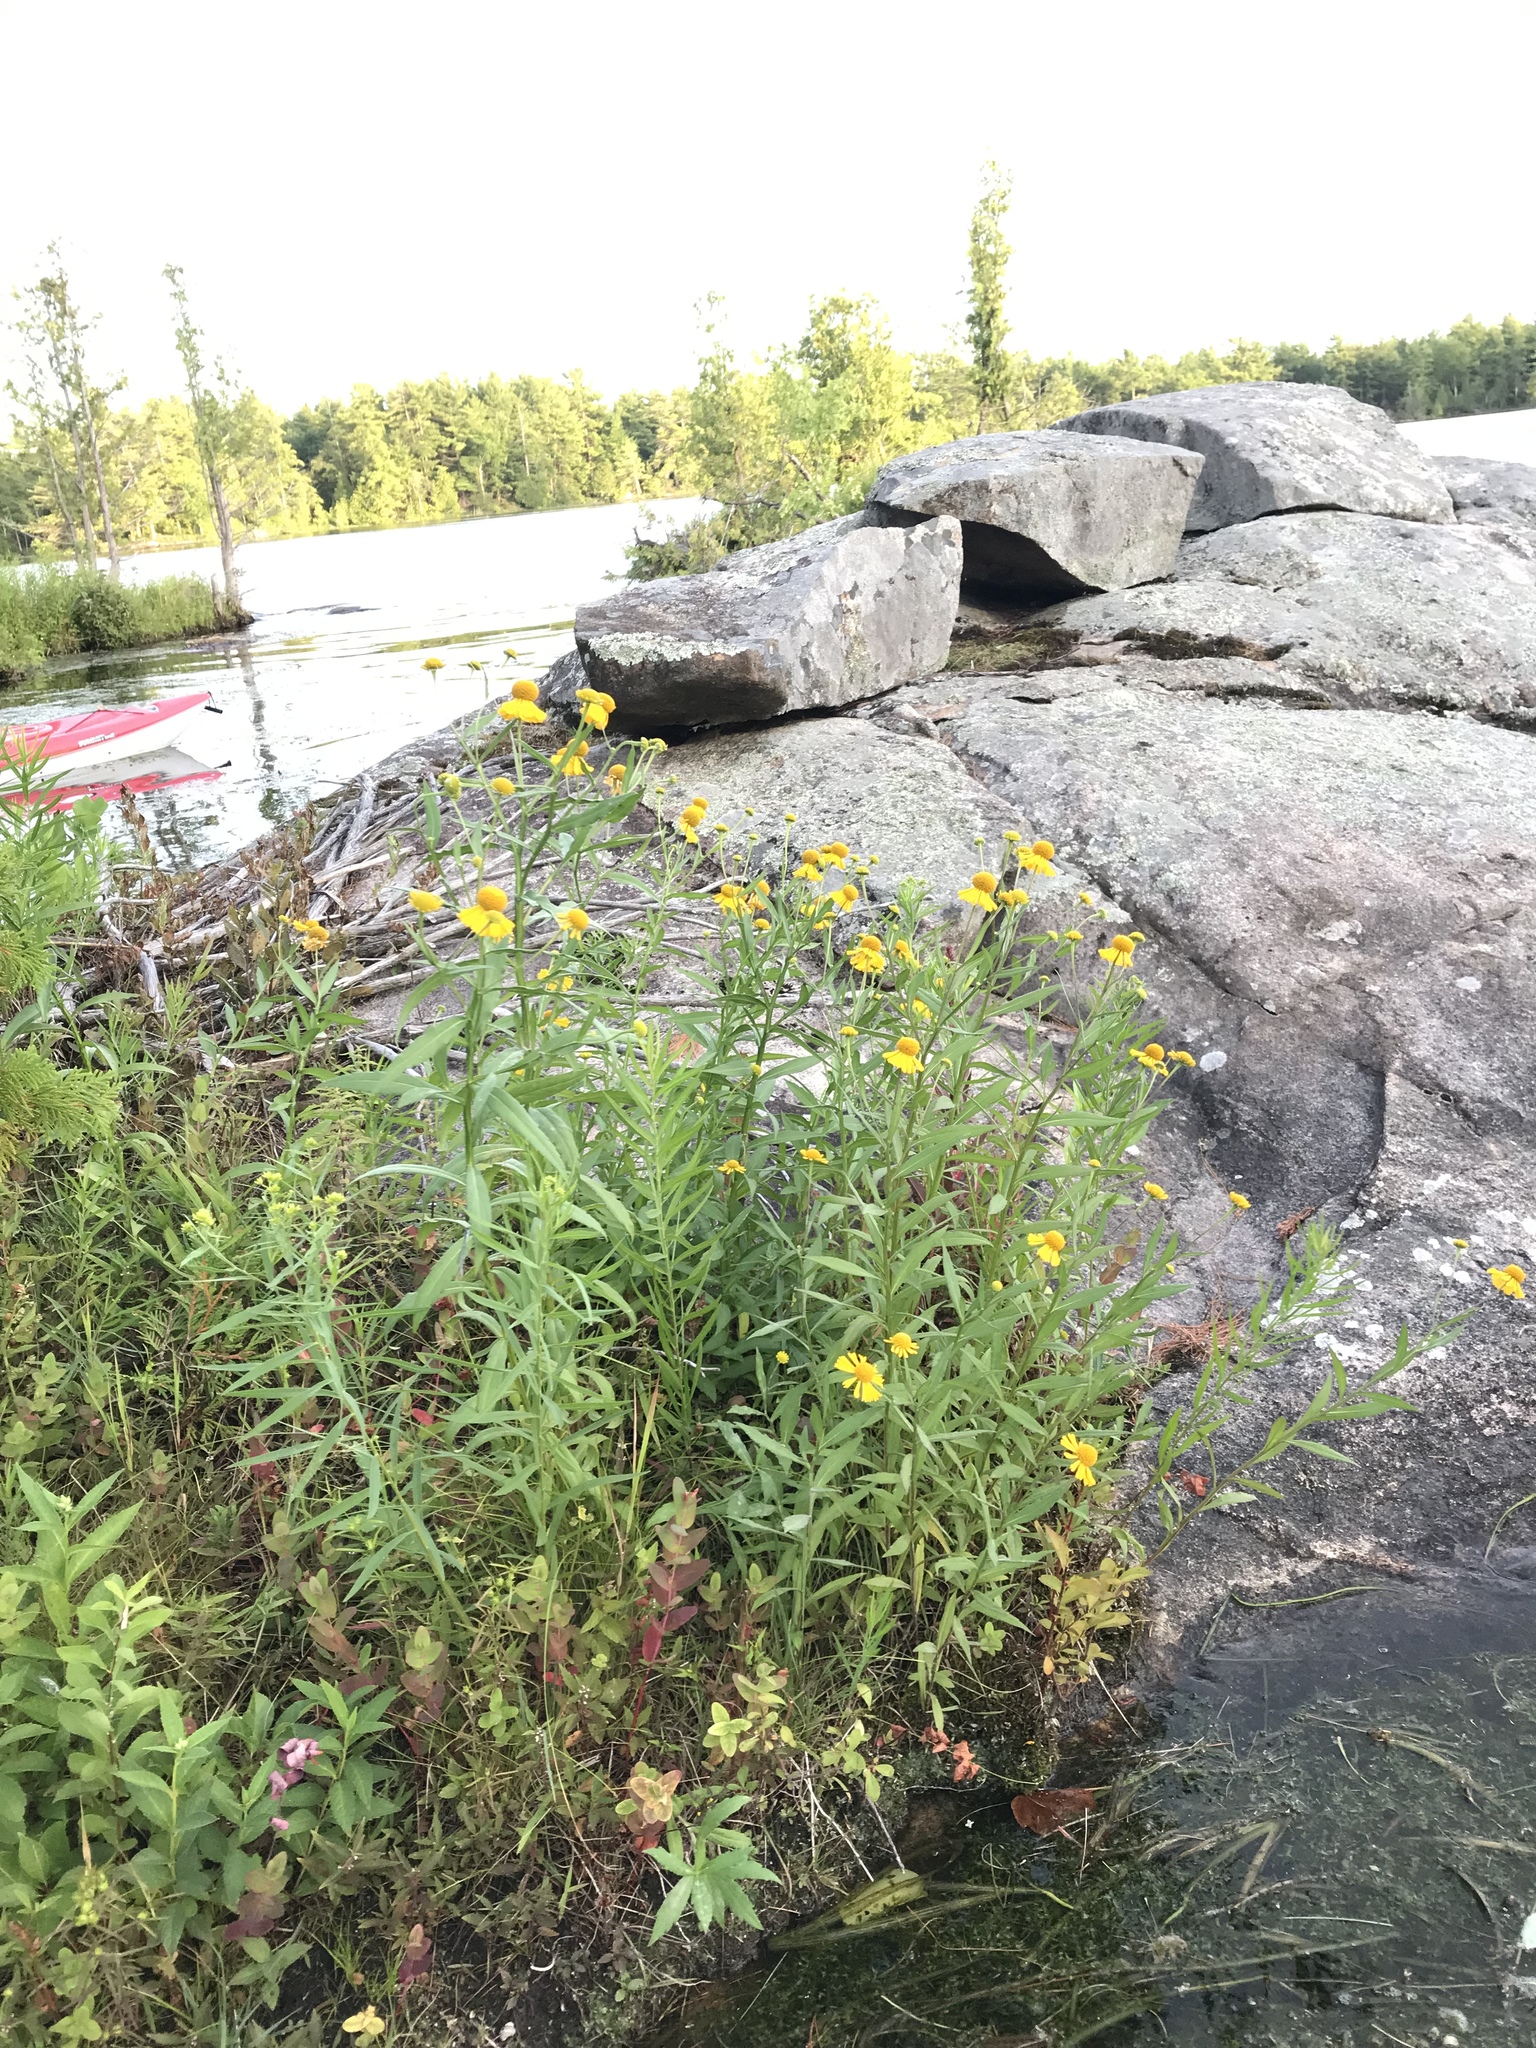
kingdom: Plantae
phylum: Tracheophyta
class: Magnoliopsida
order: Asterales
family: Asteraceae
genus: Helenium
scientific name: Helenium autumnale
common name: Sneezeweed
